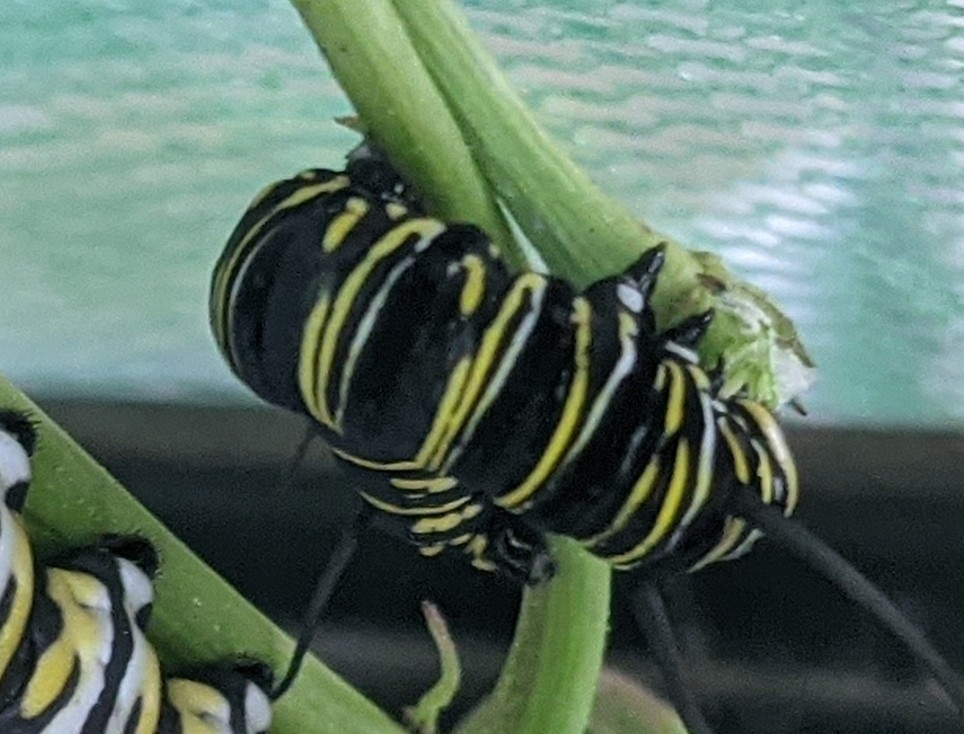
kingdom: Animalia
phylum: Arthropoda
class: Insecta
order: Lepidoptera
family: Nymphalidae
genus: Danaus
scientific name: Danaus plexippus
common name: Monarch
